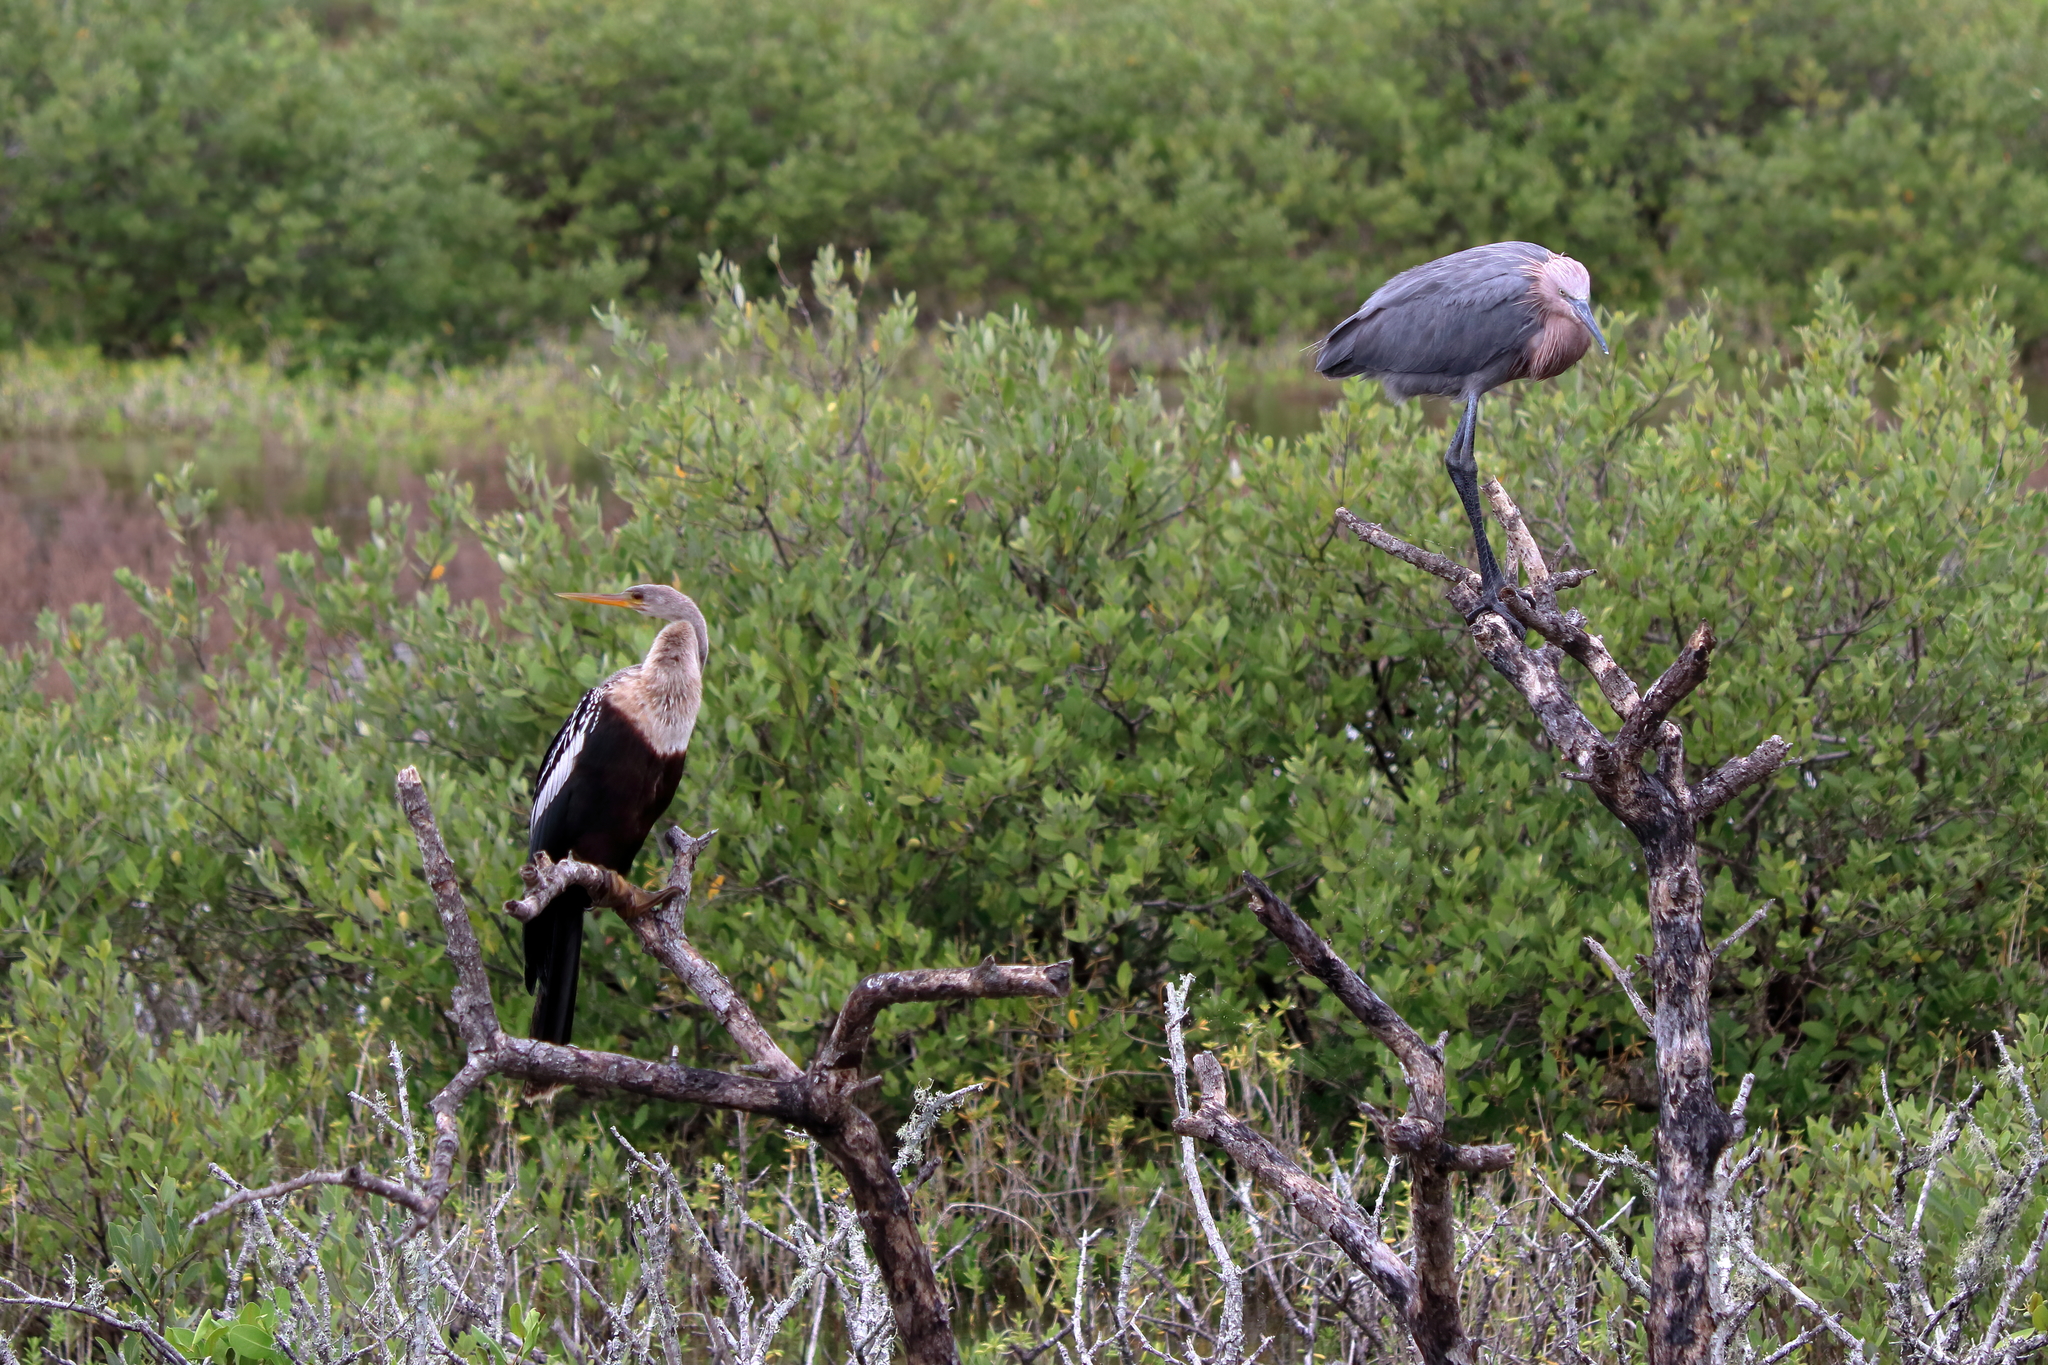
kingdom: Animalia
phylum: Chordata
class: Aves
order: Suliformes
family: Anhingidae
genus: Anhinga
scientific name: Anhinga anhinga
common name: Anhinga
